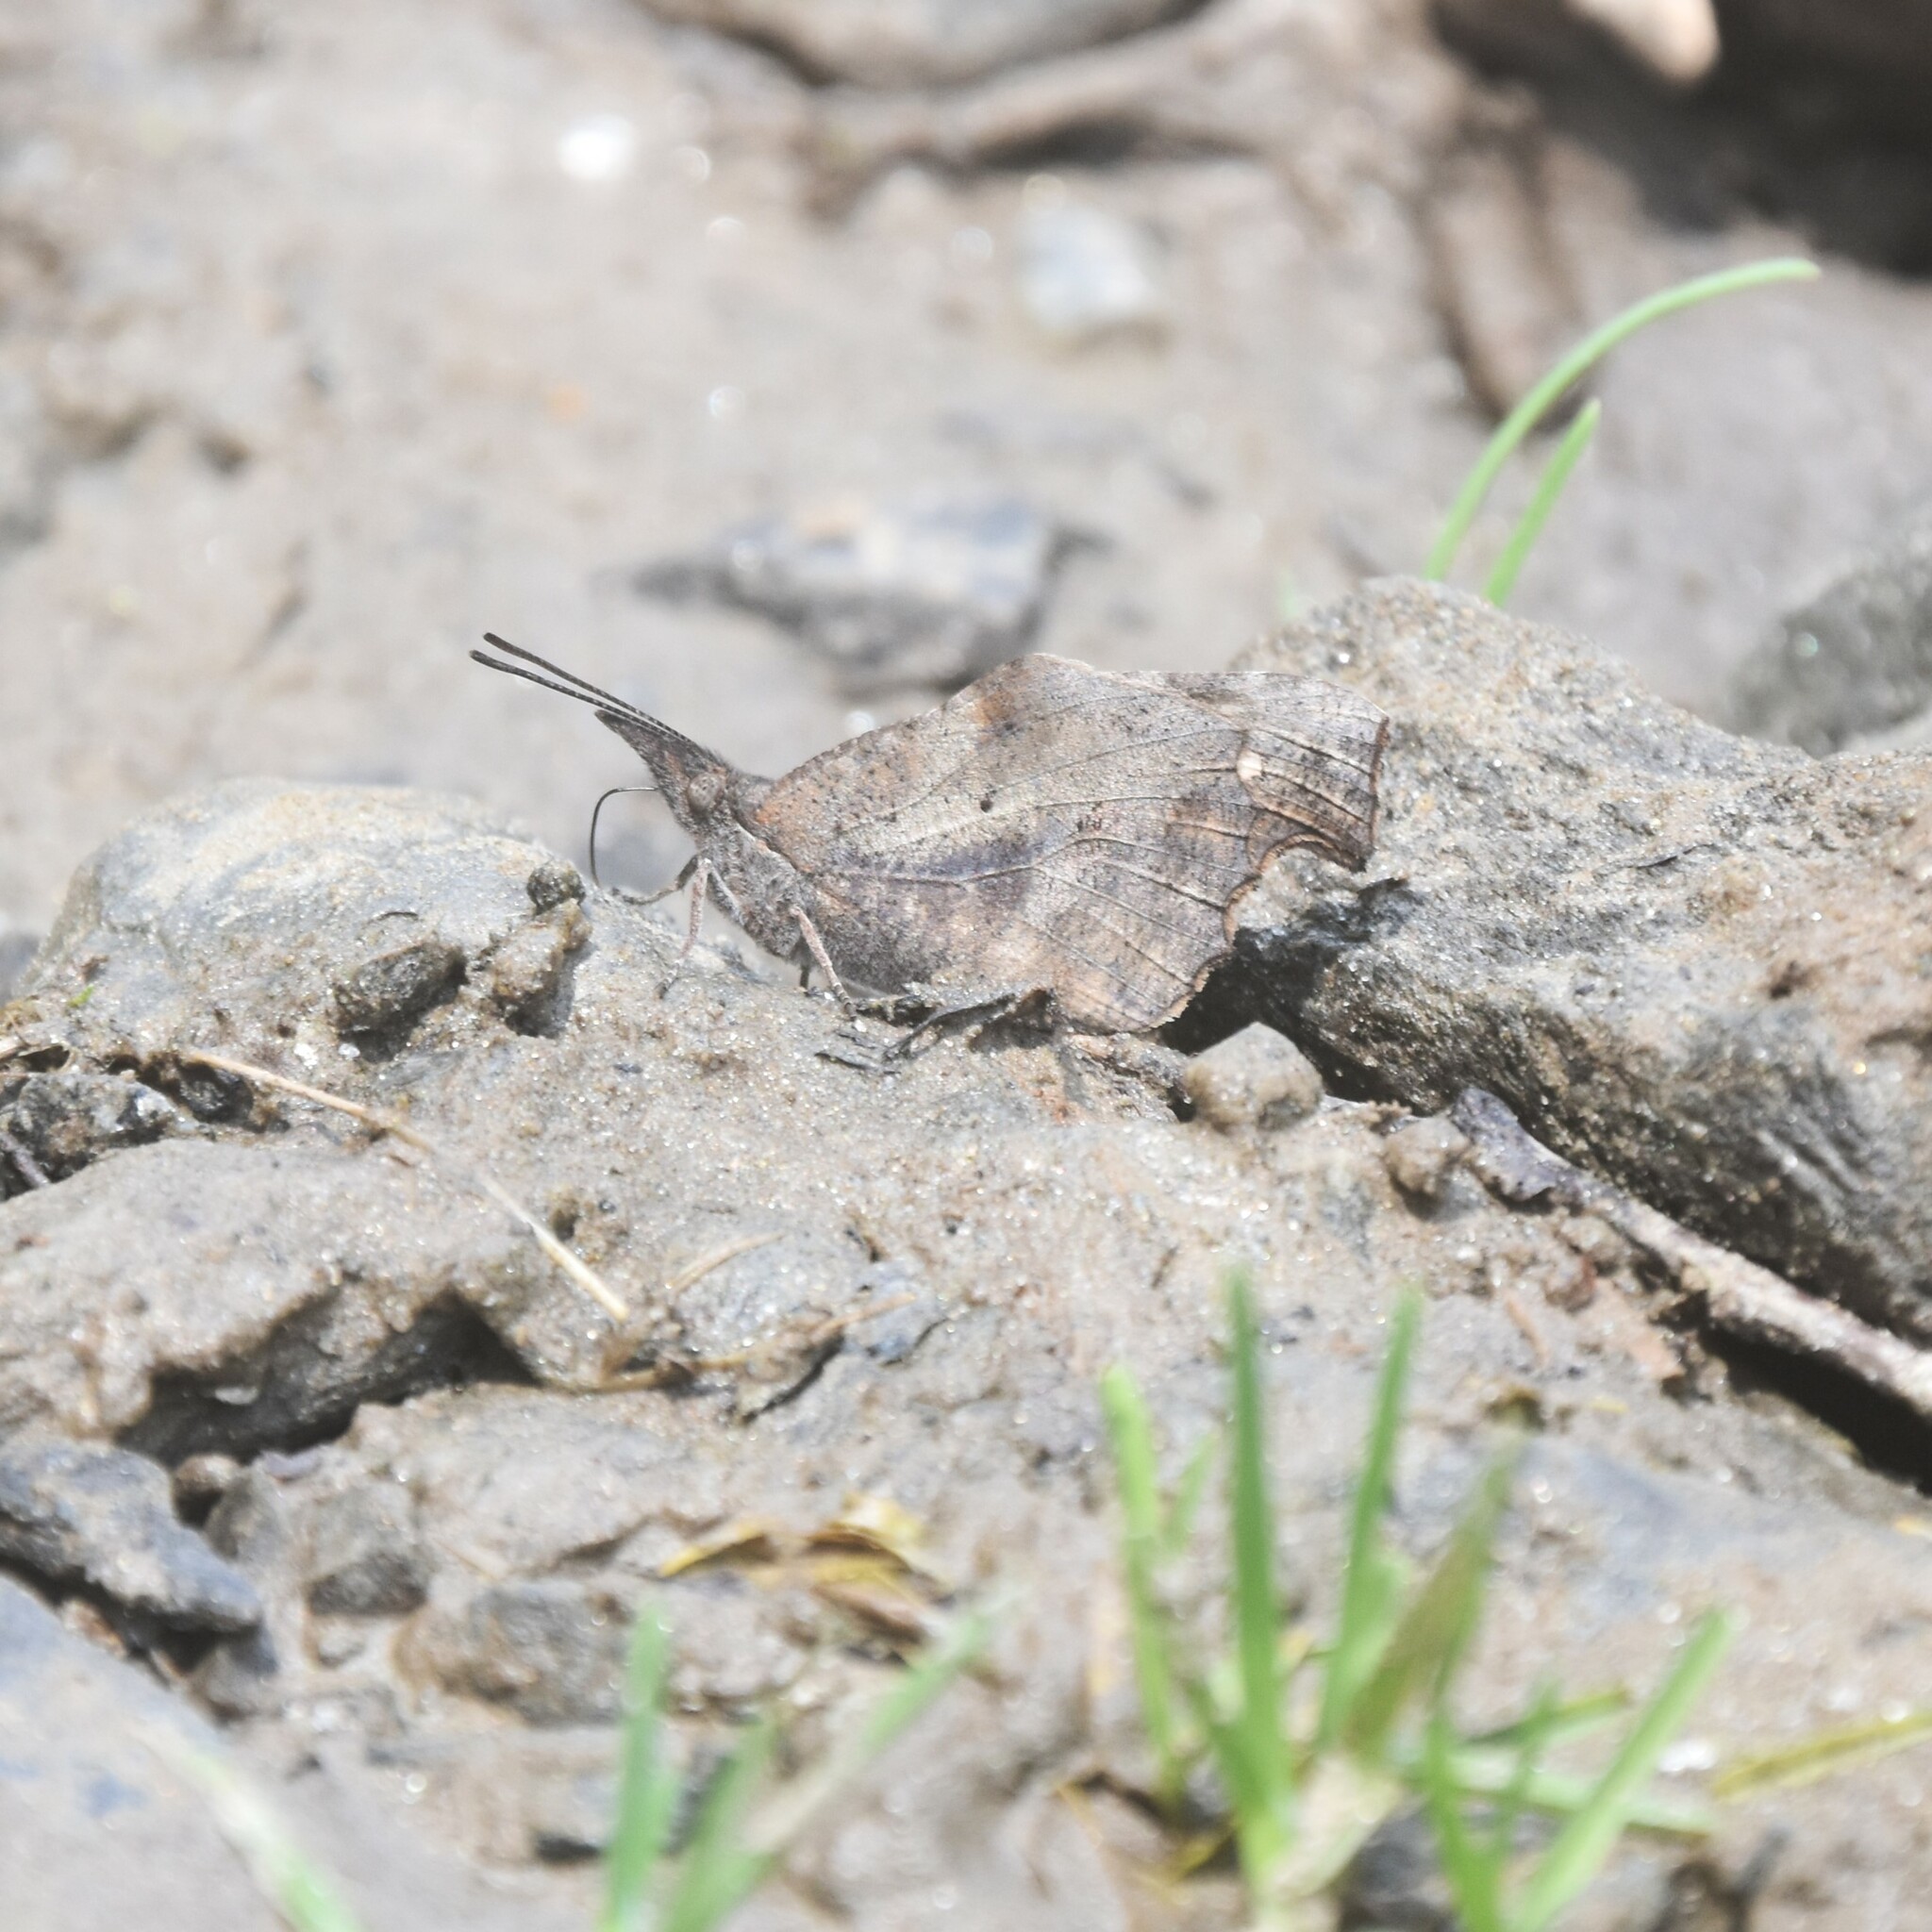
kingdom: Animalia
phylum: Arthropoda
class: Insecta
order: Lepidoptera
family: Nymphalidae
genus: Libythea
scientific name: Libythea lepita
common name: Common beak
